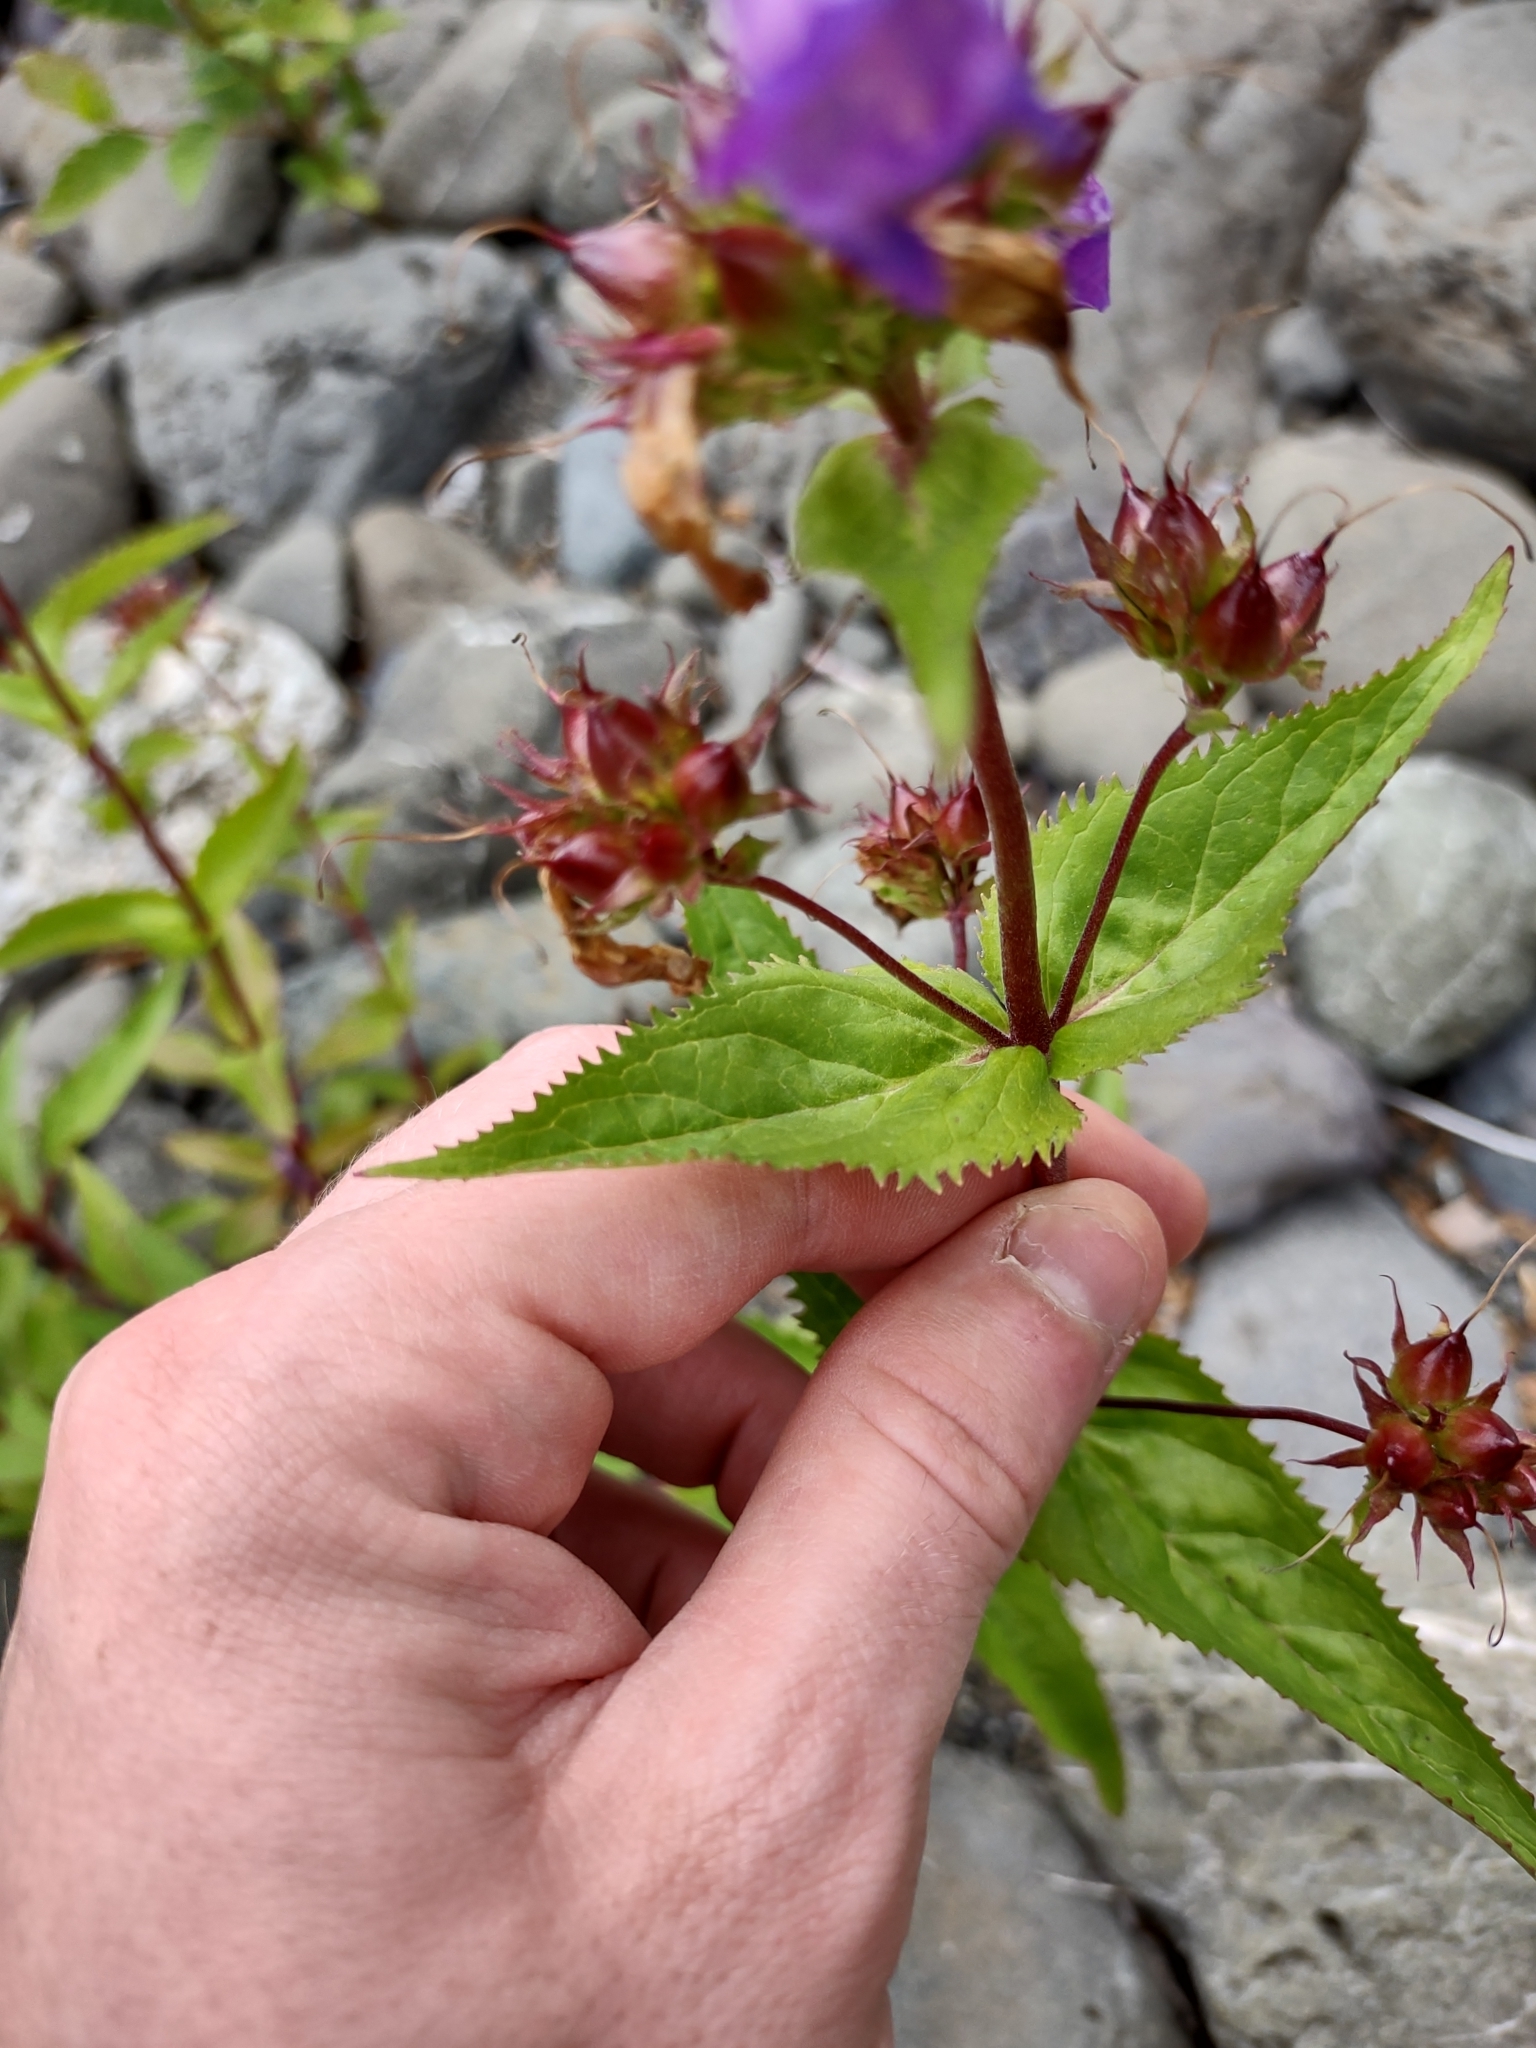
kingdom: Plantae
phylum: Tracheophyta
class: Magnoliopsida
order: Lamiales
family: Plantaginaceae
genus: Penstemon
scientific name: Penstemon serrulatus
